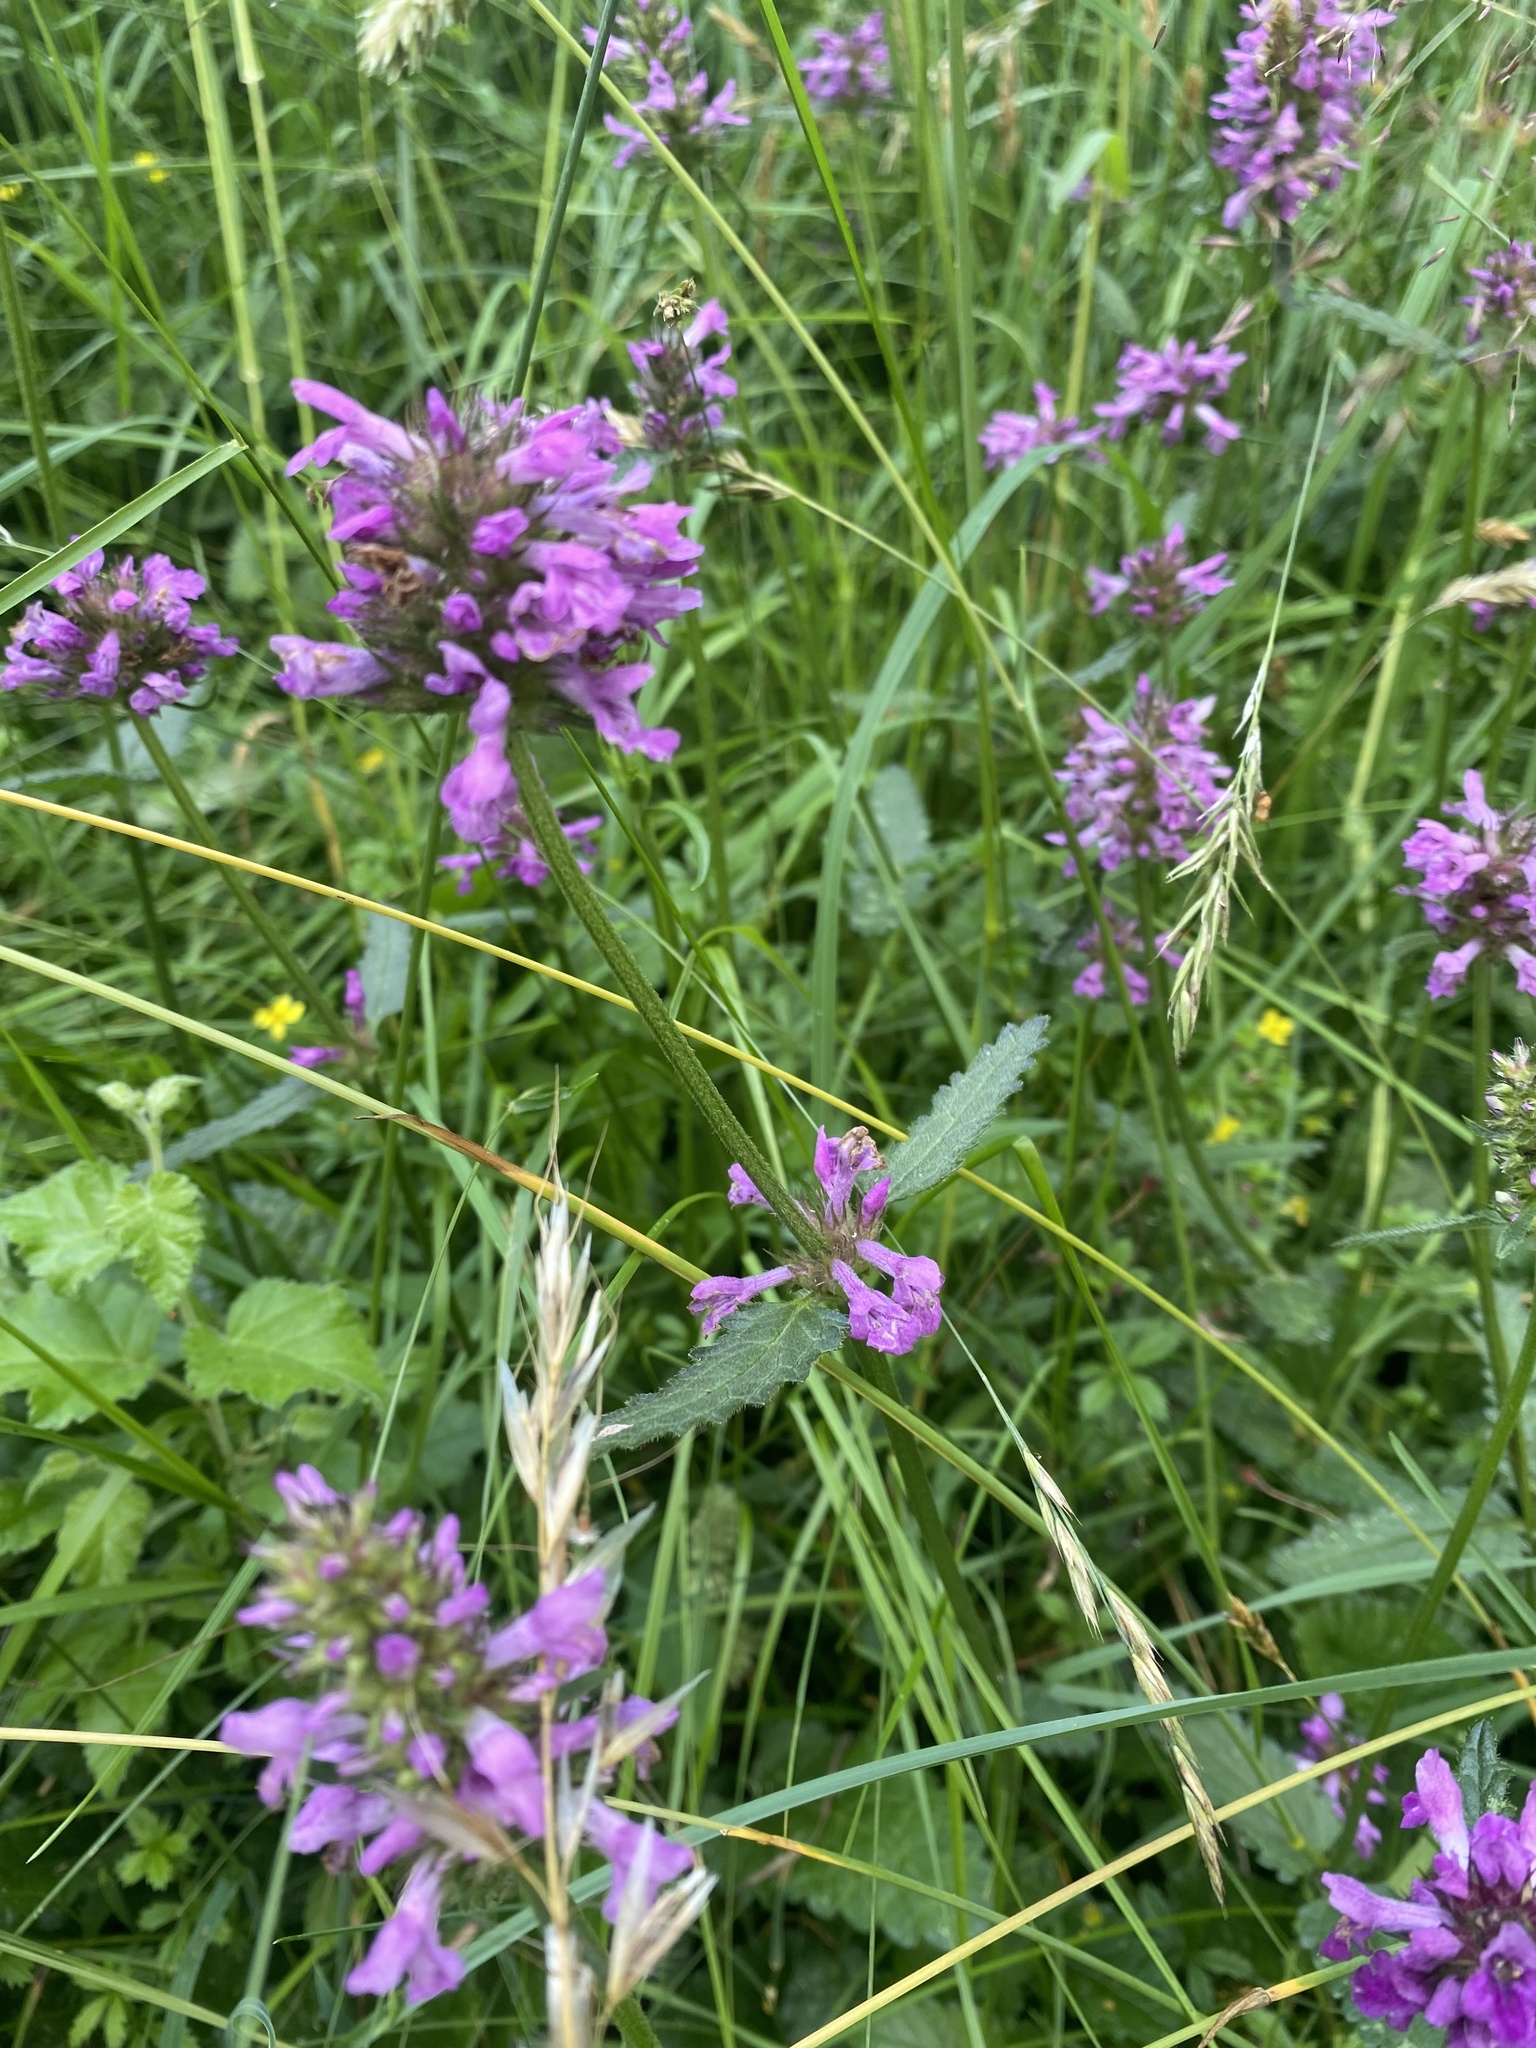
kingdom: Plantae
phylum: Tracheophyta
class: Magnoliopsida
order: Lamiales
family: Lamiaceae
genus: Betonica
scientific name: Betonica officinalis
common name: Bishop's-wort
